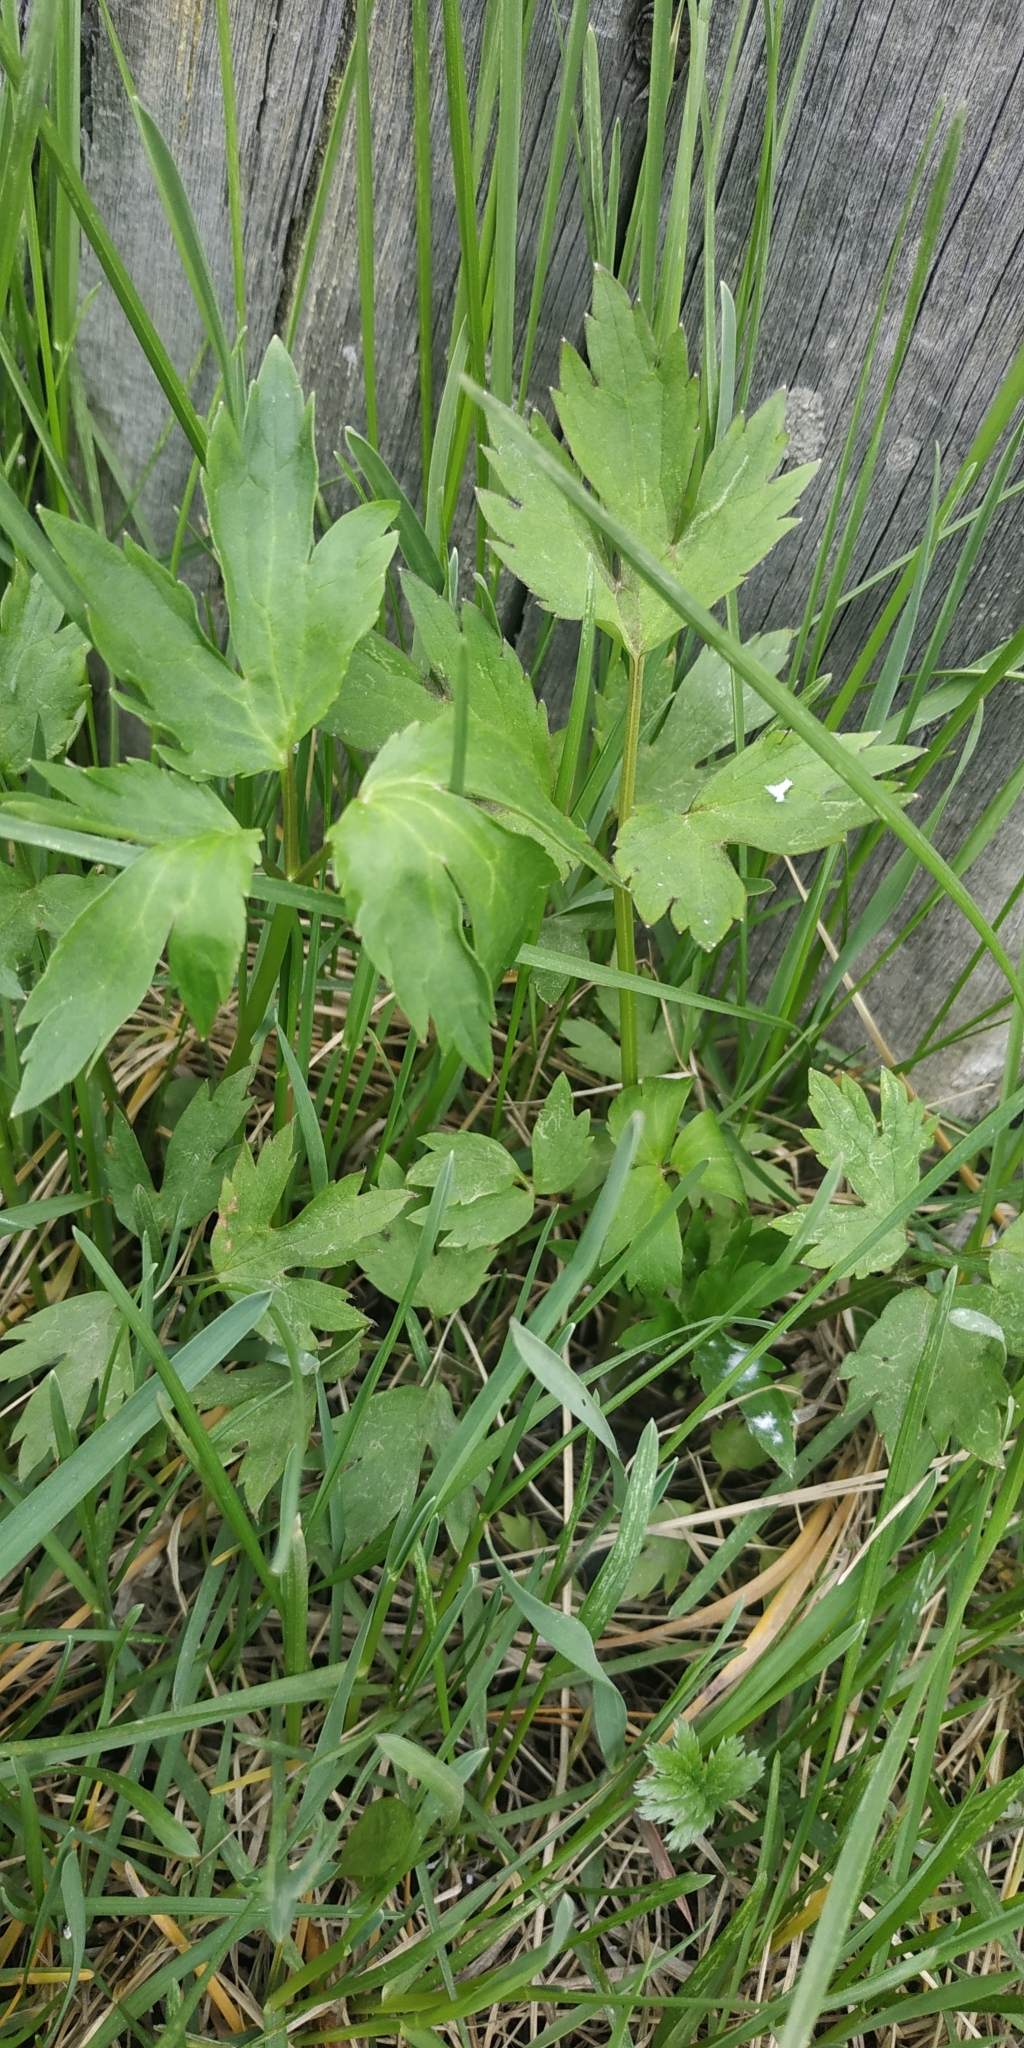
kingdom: Plantae
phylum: Tracheophyta
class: Magnoliopsida
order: Ranunculales
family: Ranunculaceae
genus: Ranunculus
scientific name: Ranunculus repens
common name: Creeping buttercup
